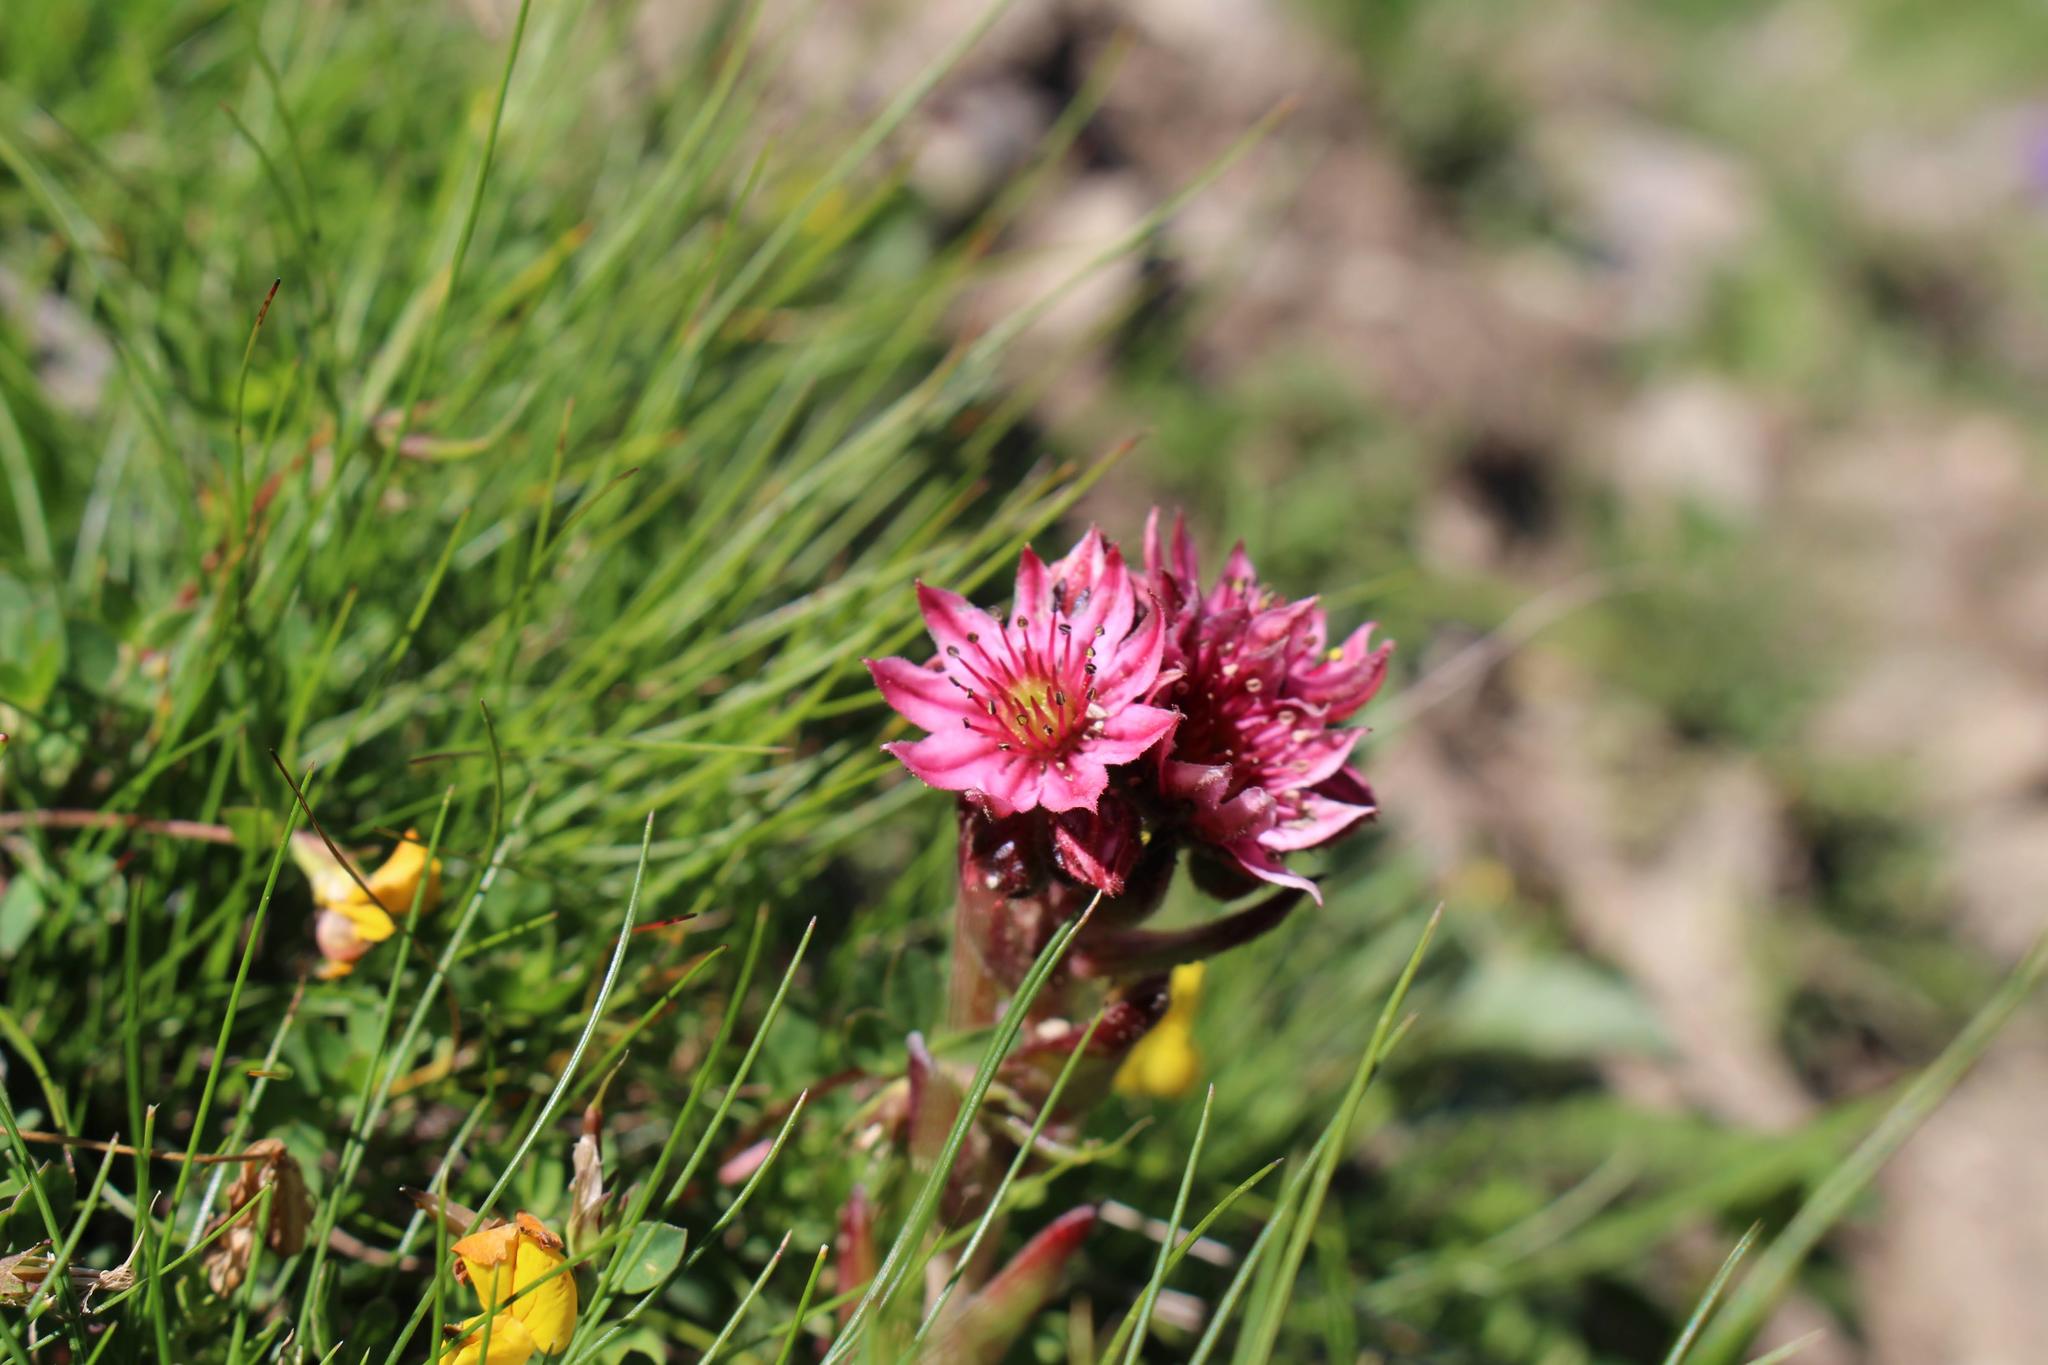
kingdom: Plantae
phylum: Tracheophyta
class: Magnoliopsida
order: Saxifragales
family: Crassulaceae
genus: Sempervivum
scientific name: Sempervivum arachnoideum
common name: Cobweb house-leek
